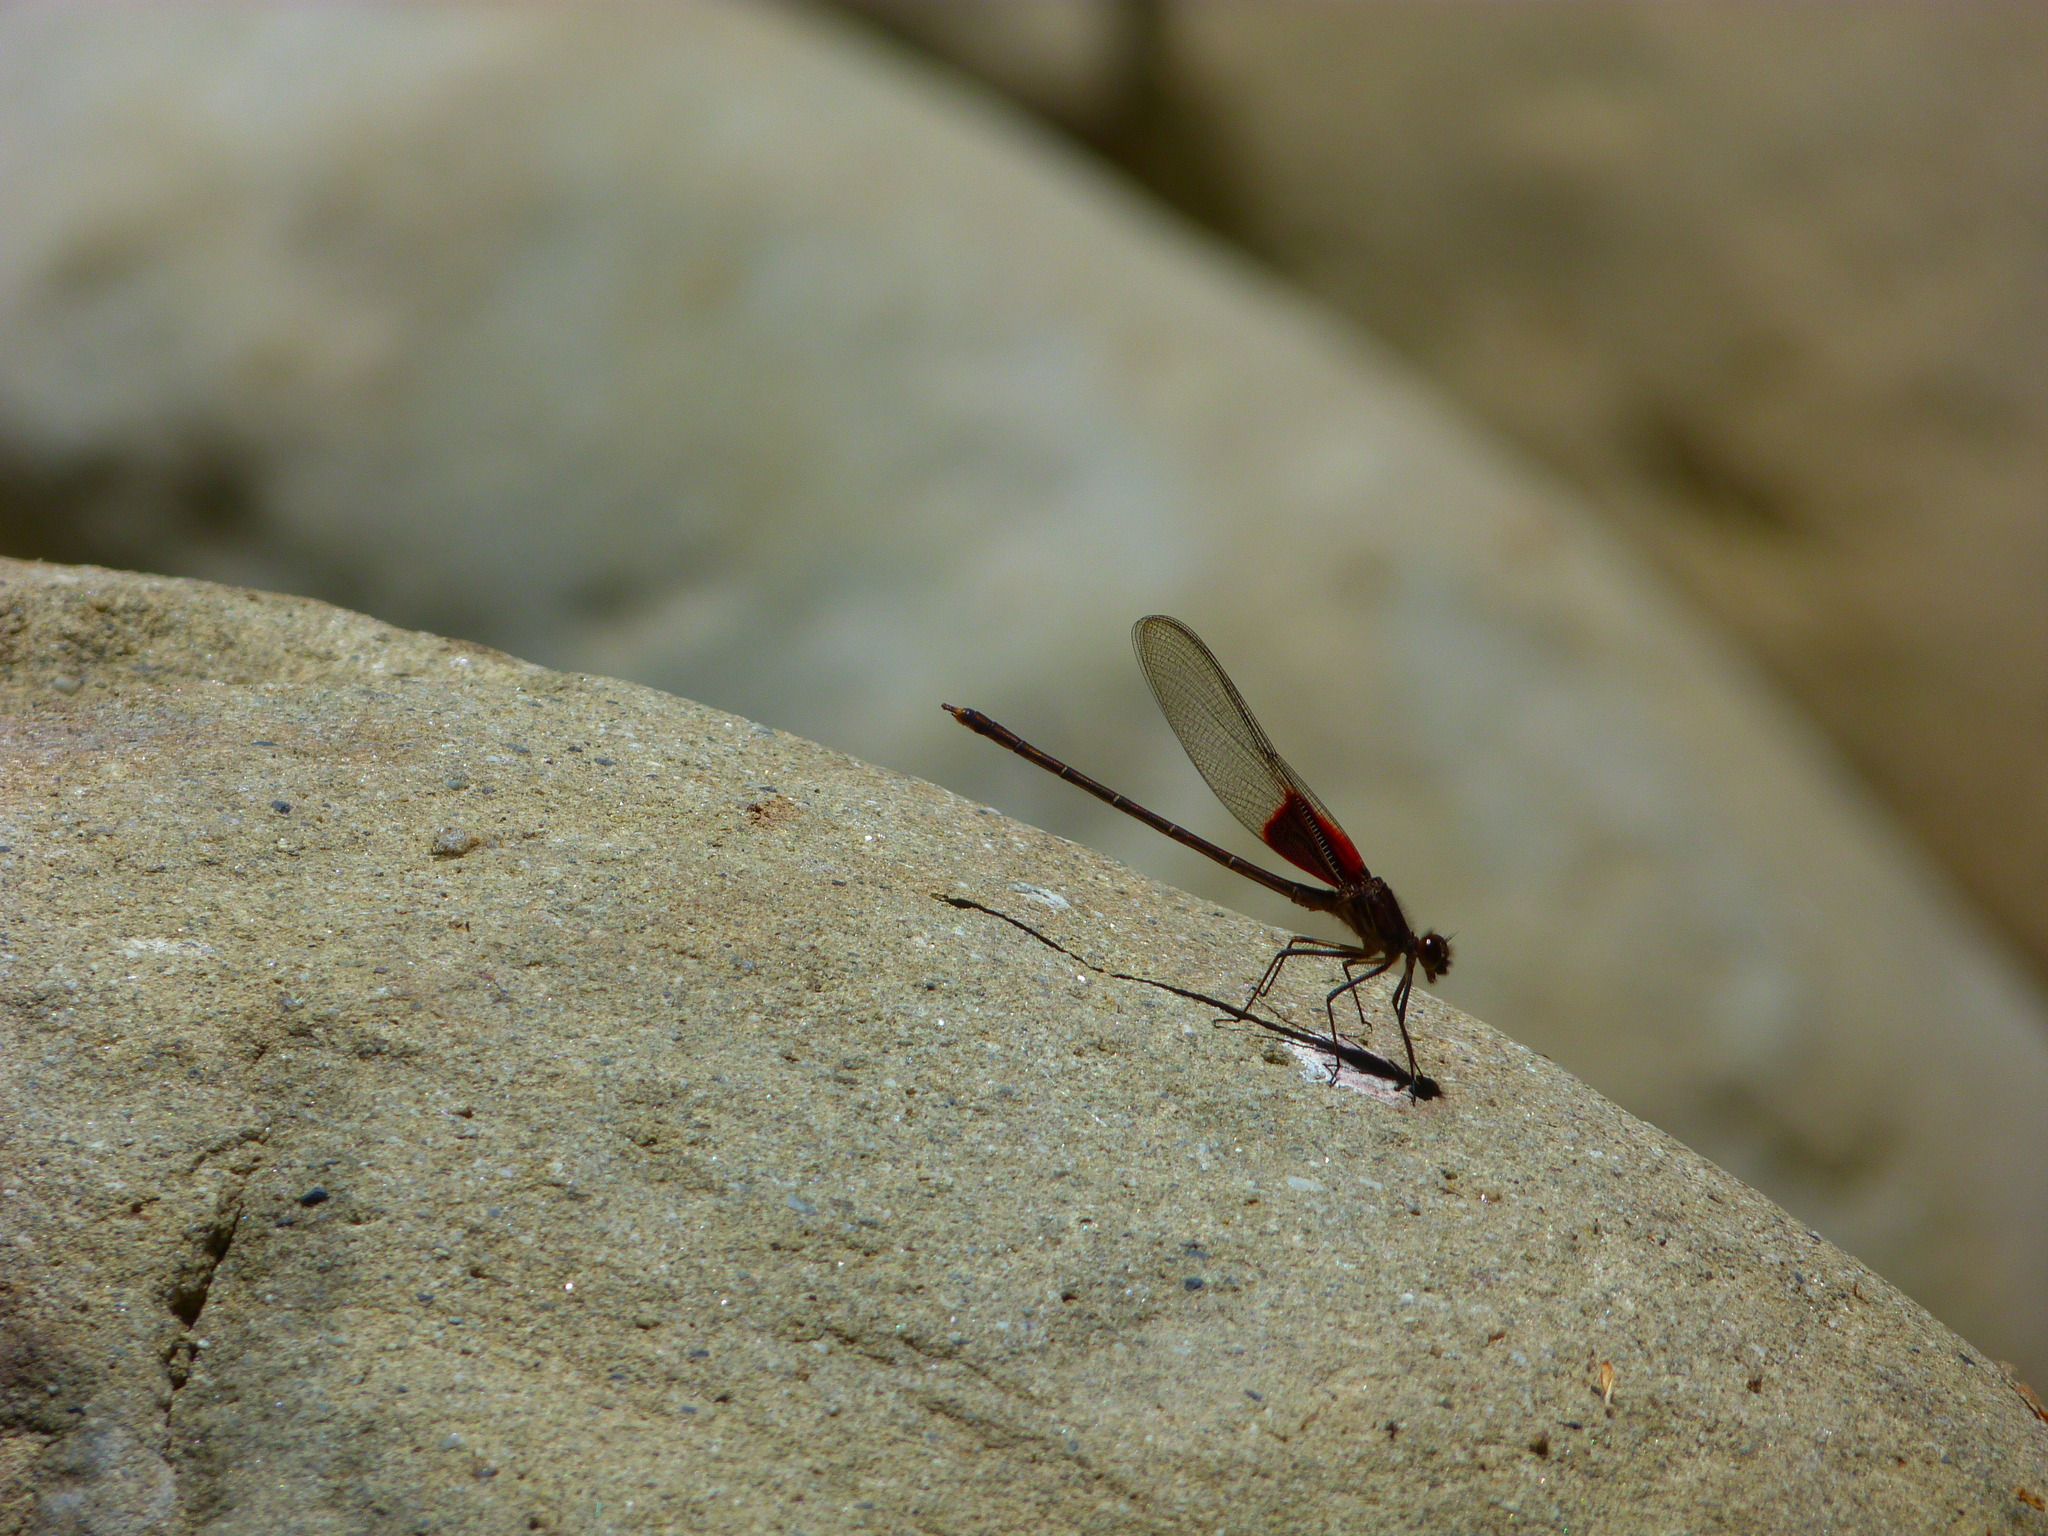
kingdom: Animalia
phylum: Arthropoda
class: Insecta
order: Odonata
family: Calopterygidae
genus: Hetaerina
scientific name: Hetaerina americana
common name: American rubyspot
